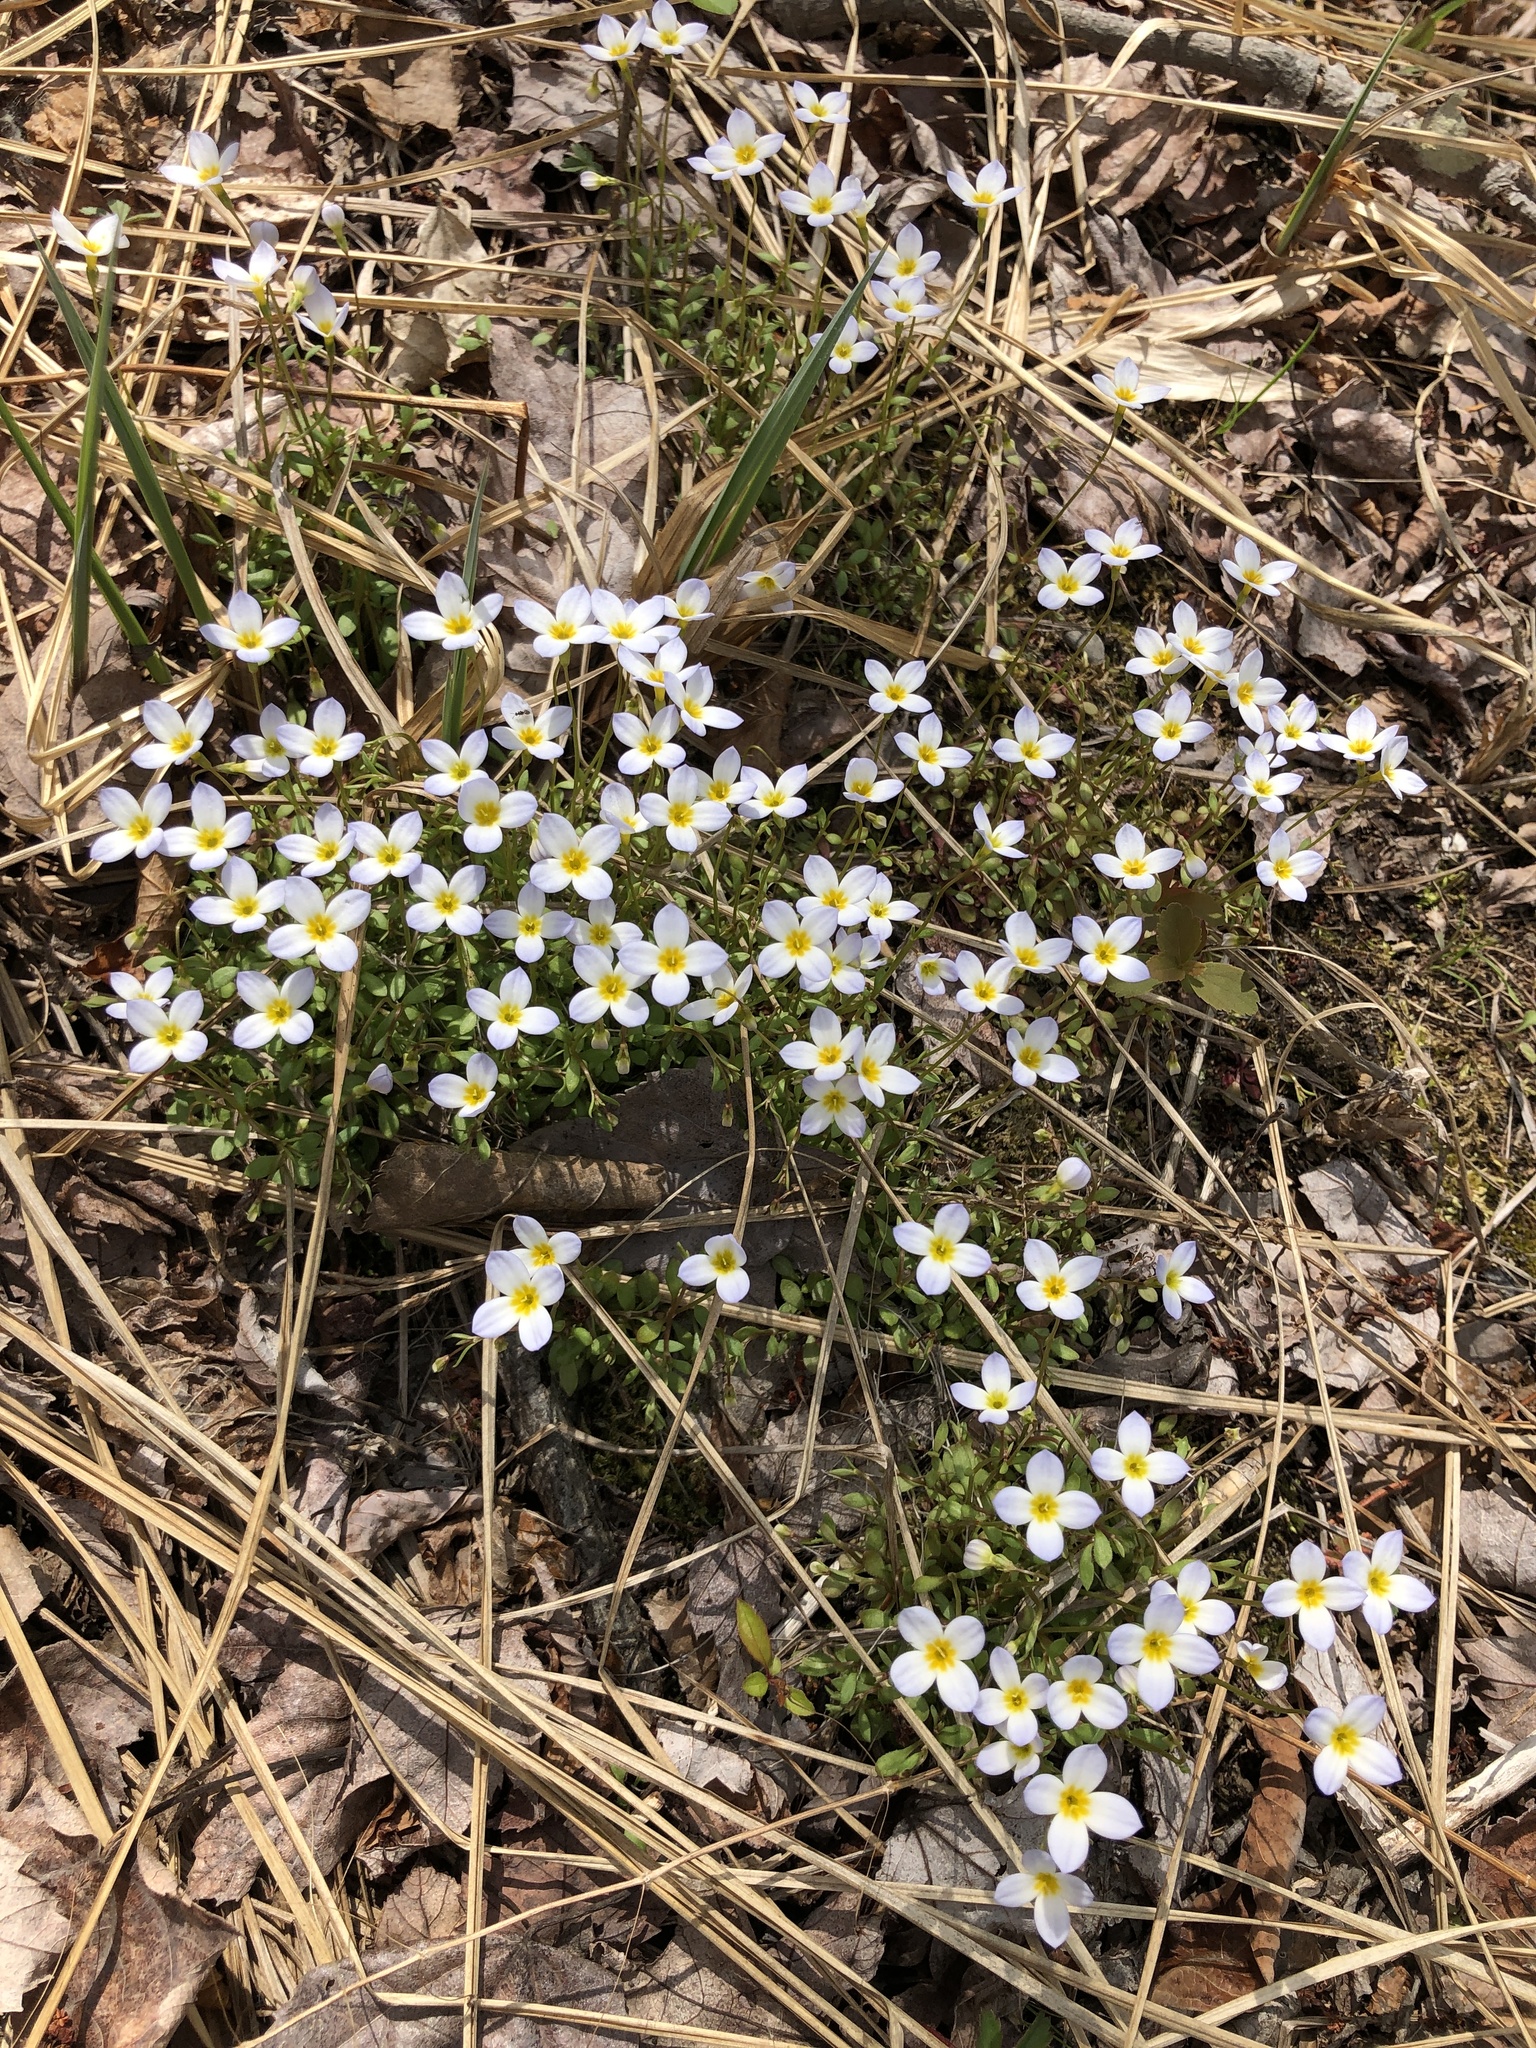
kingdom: Plantae
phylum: Tracheophyta
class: Magnoliopsida
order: Gentianales
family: Rubiaceae
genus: Houstonia
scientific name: Houstonia caerulea
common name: Bluets
